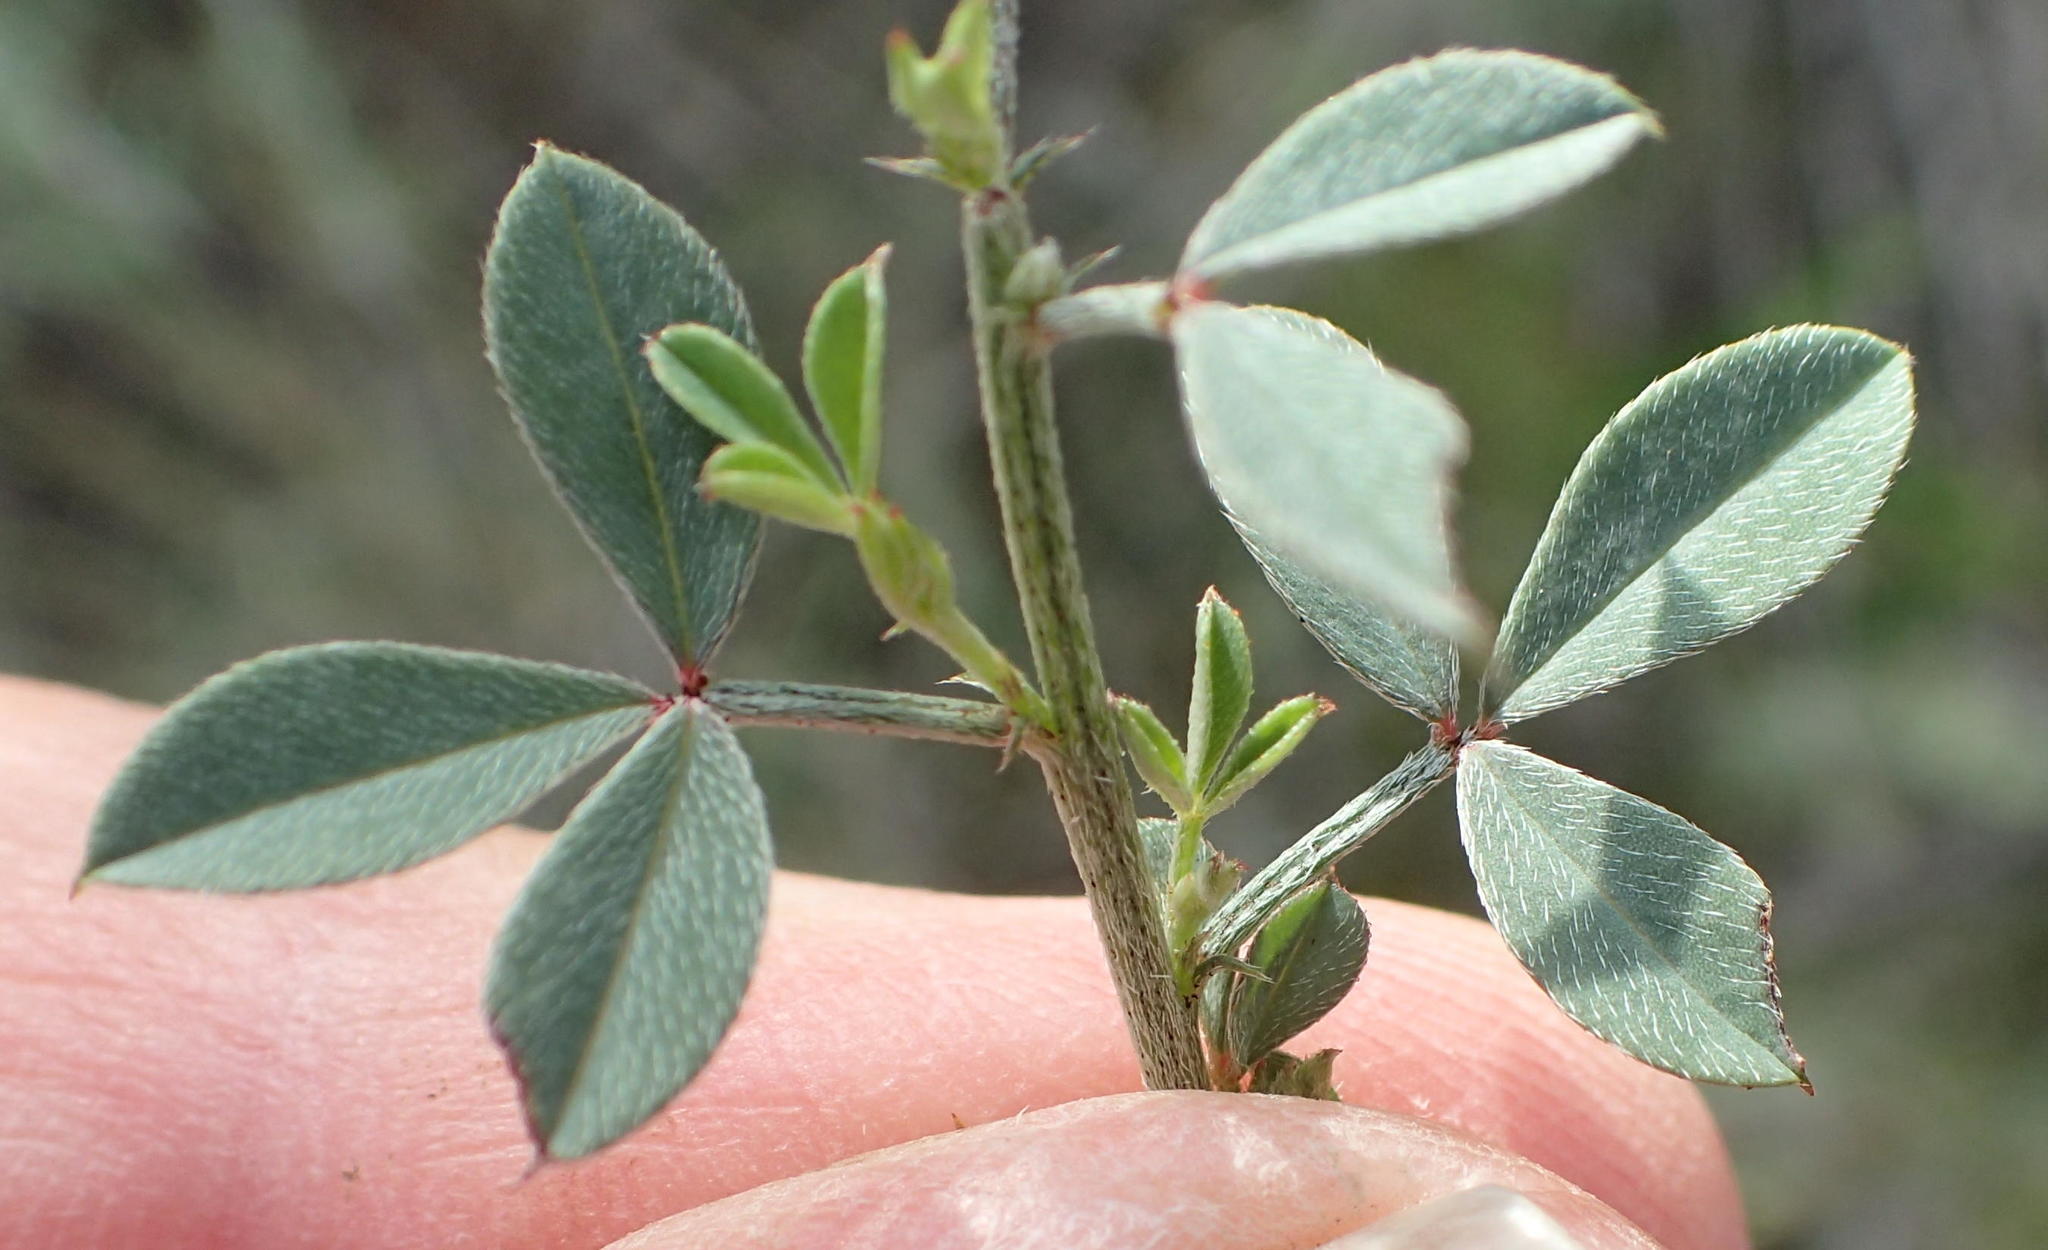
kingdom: Plantae
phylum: Tracheophyta
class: Magnoliopsida
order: Fabales
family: Fabaceae
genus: Indigofera
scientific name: Indigofera heterophylla
